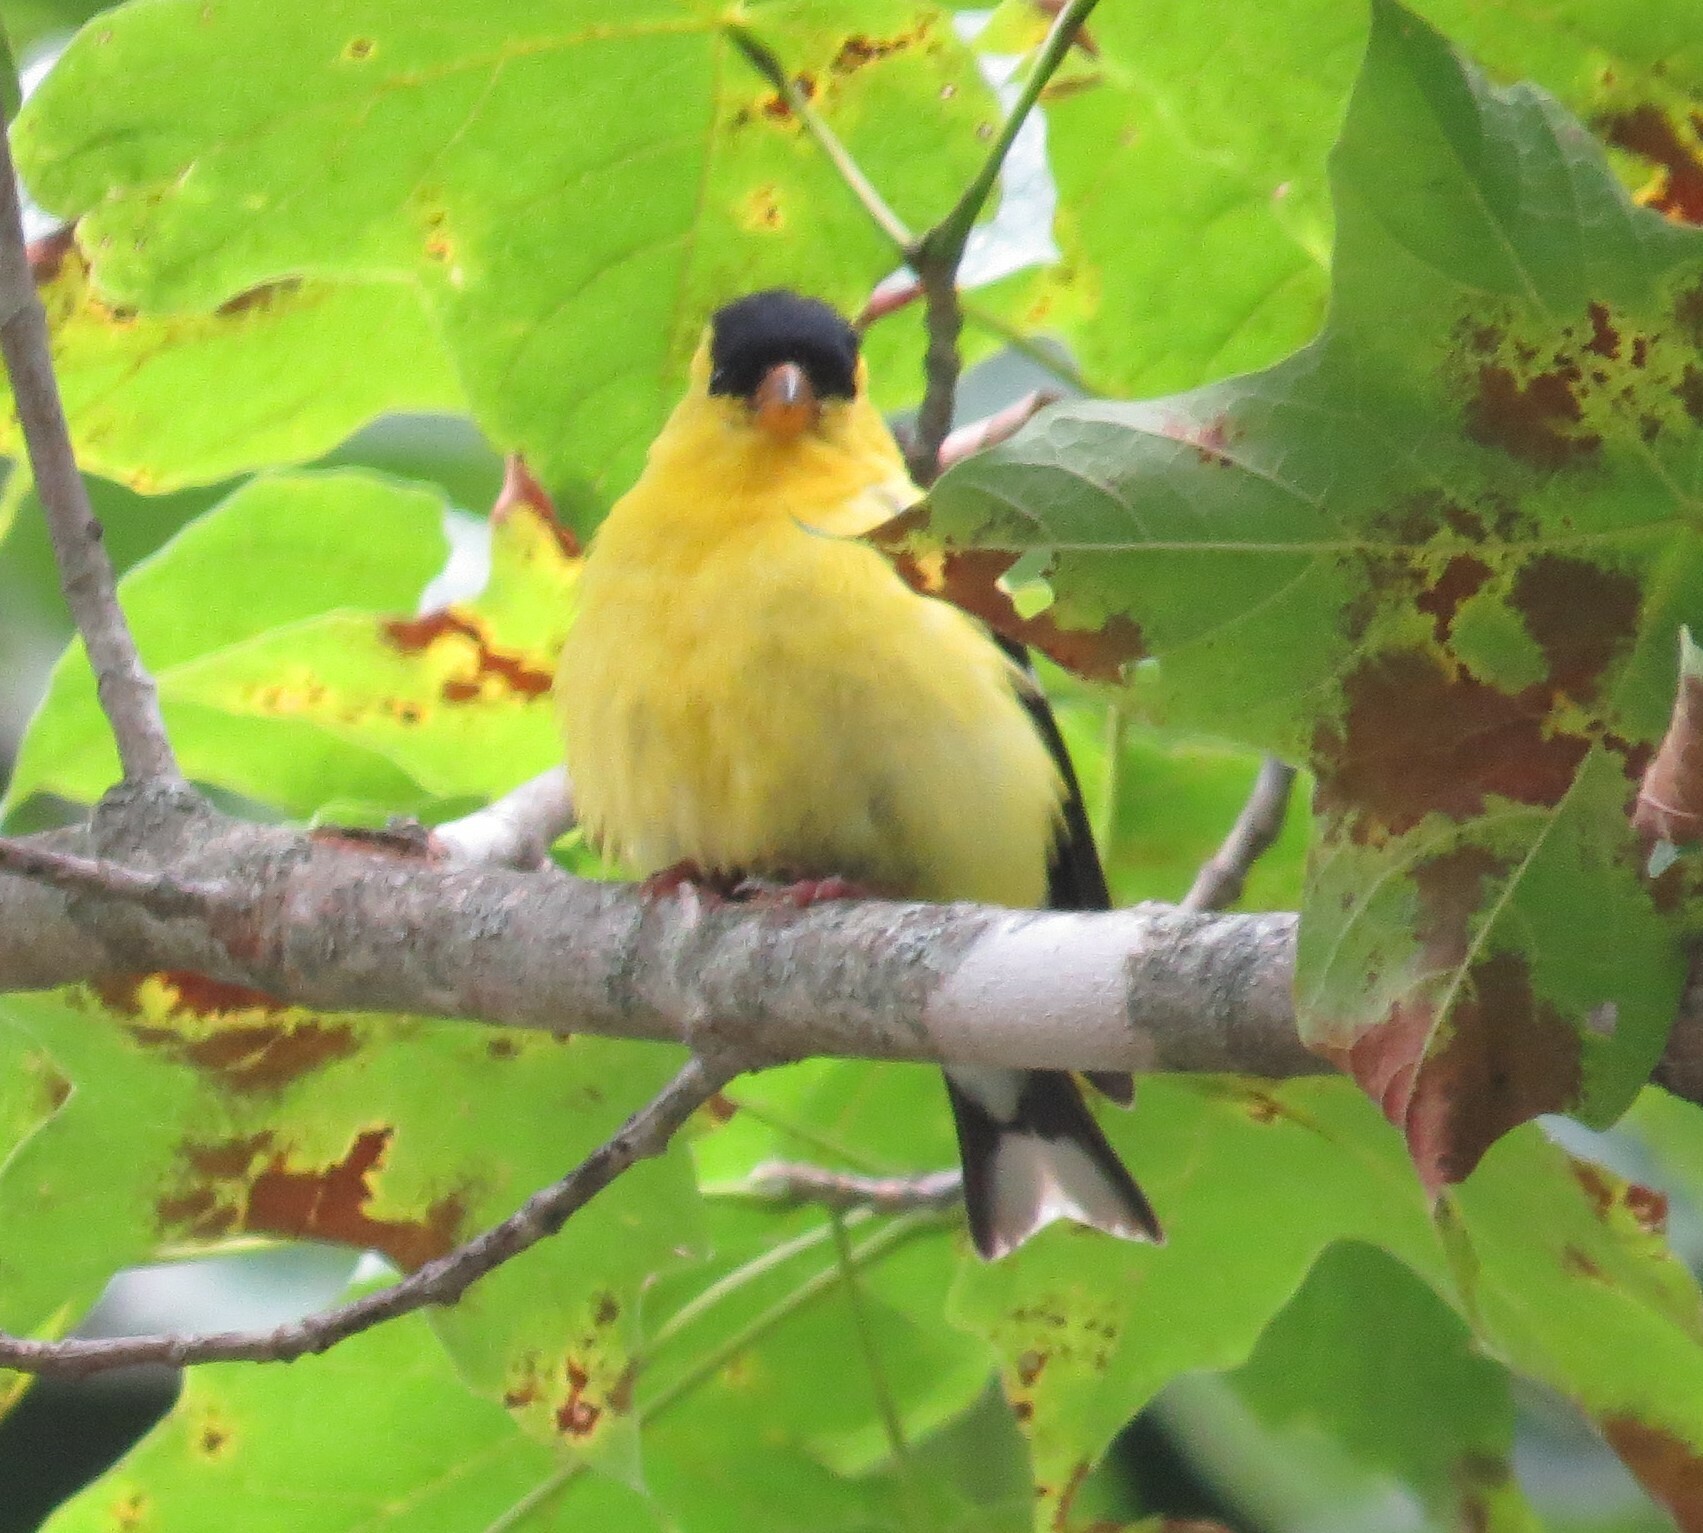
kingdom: Animalia
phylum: Chordata
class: Aves
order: Passeriformes
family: Fringillidae
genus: Spinus
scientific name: Spinus tristis
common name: American goldfinch
